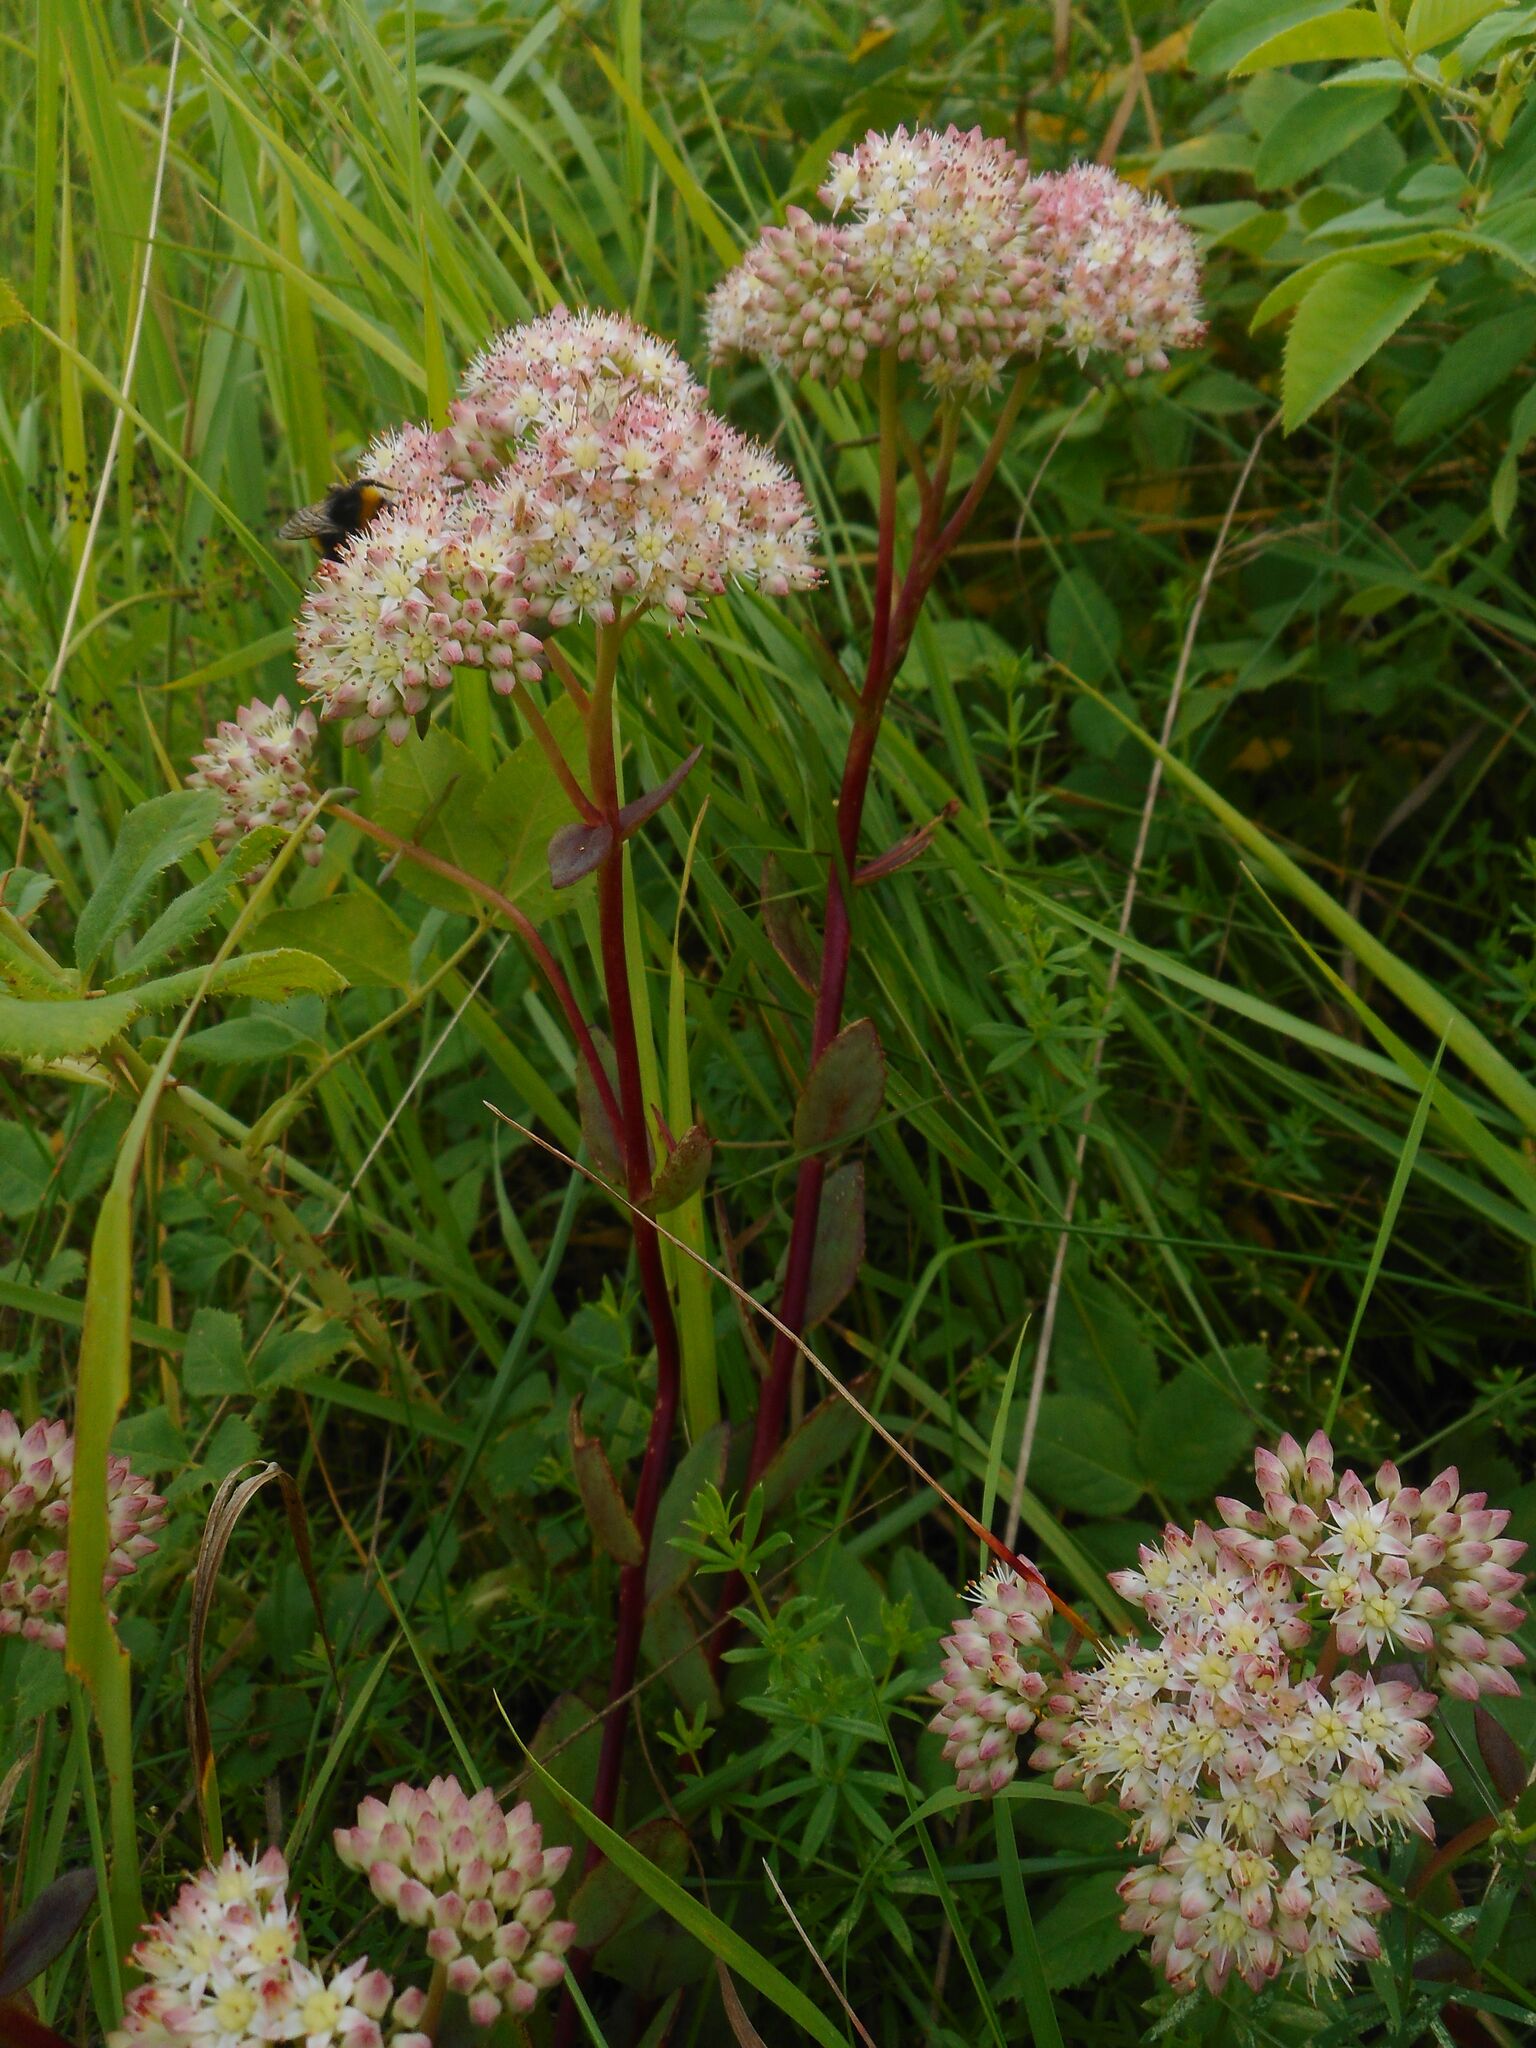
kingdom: Plantae
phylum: Tracheophyta
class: Magnoliopsida
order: Saxifragales
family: Crassulaceae
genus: Hylotelephium
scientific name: Hylotelephium maximum
